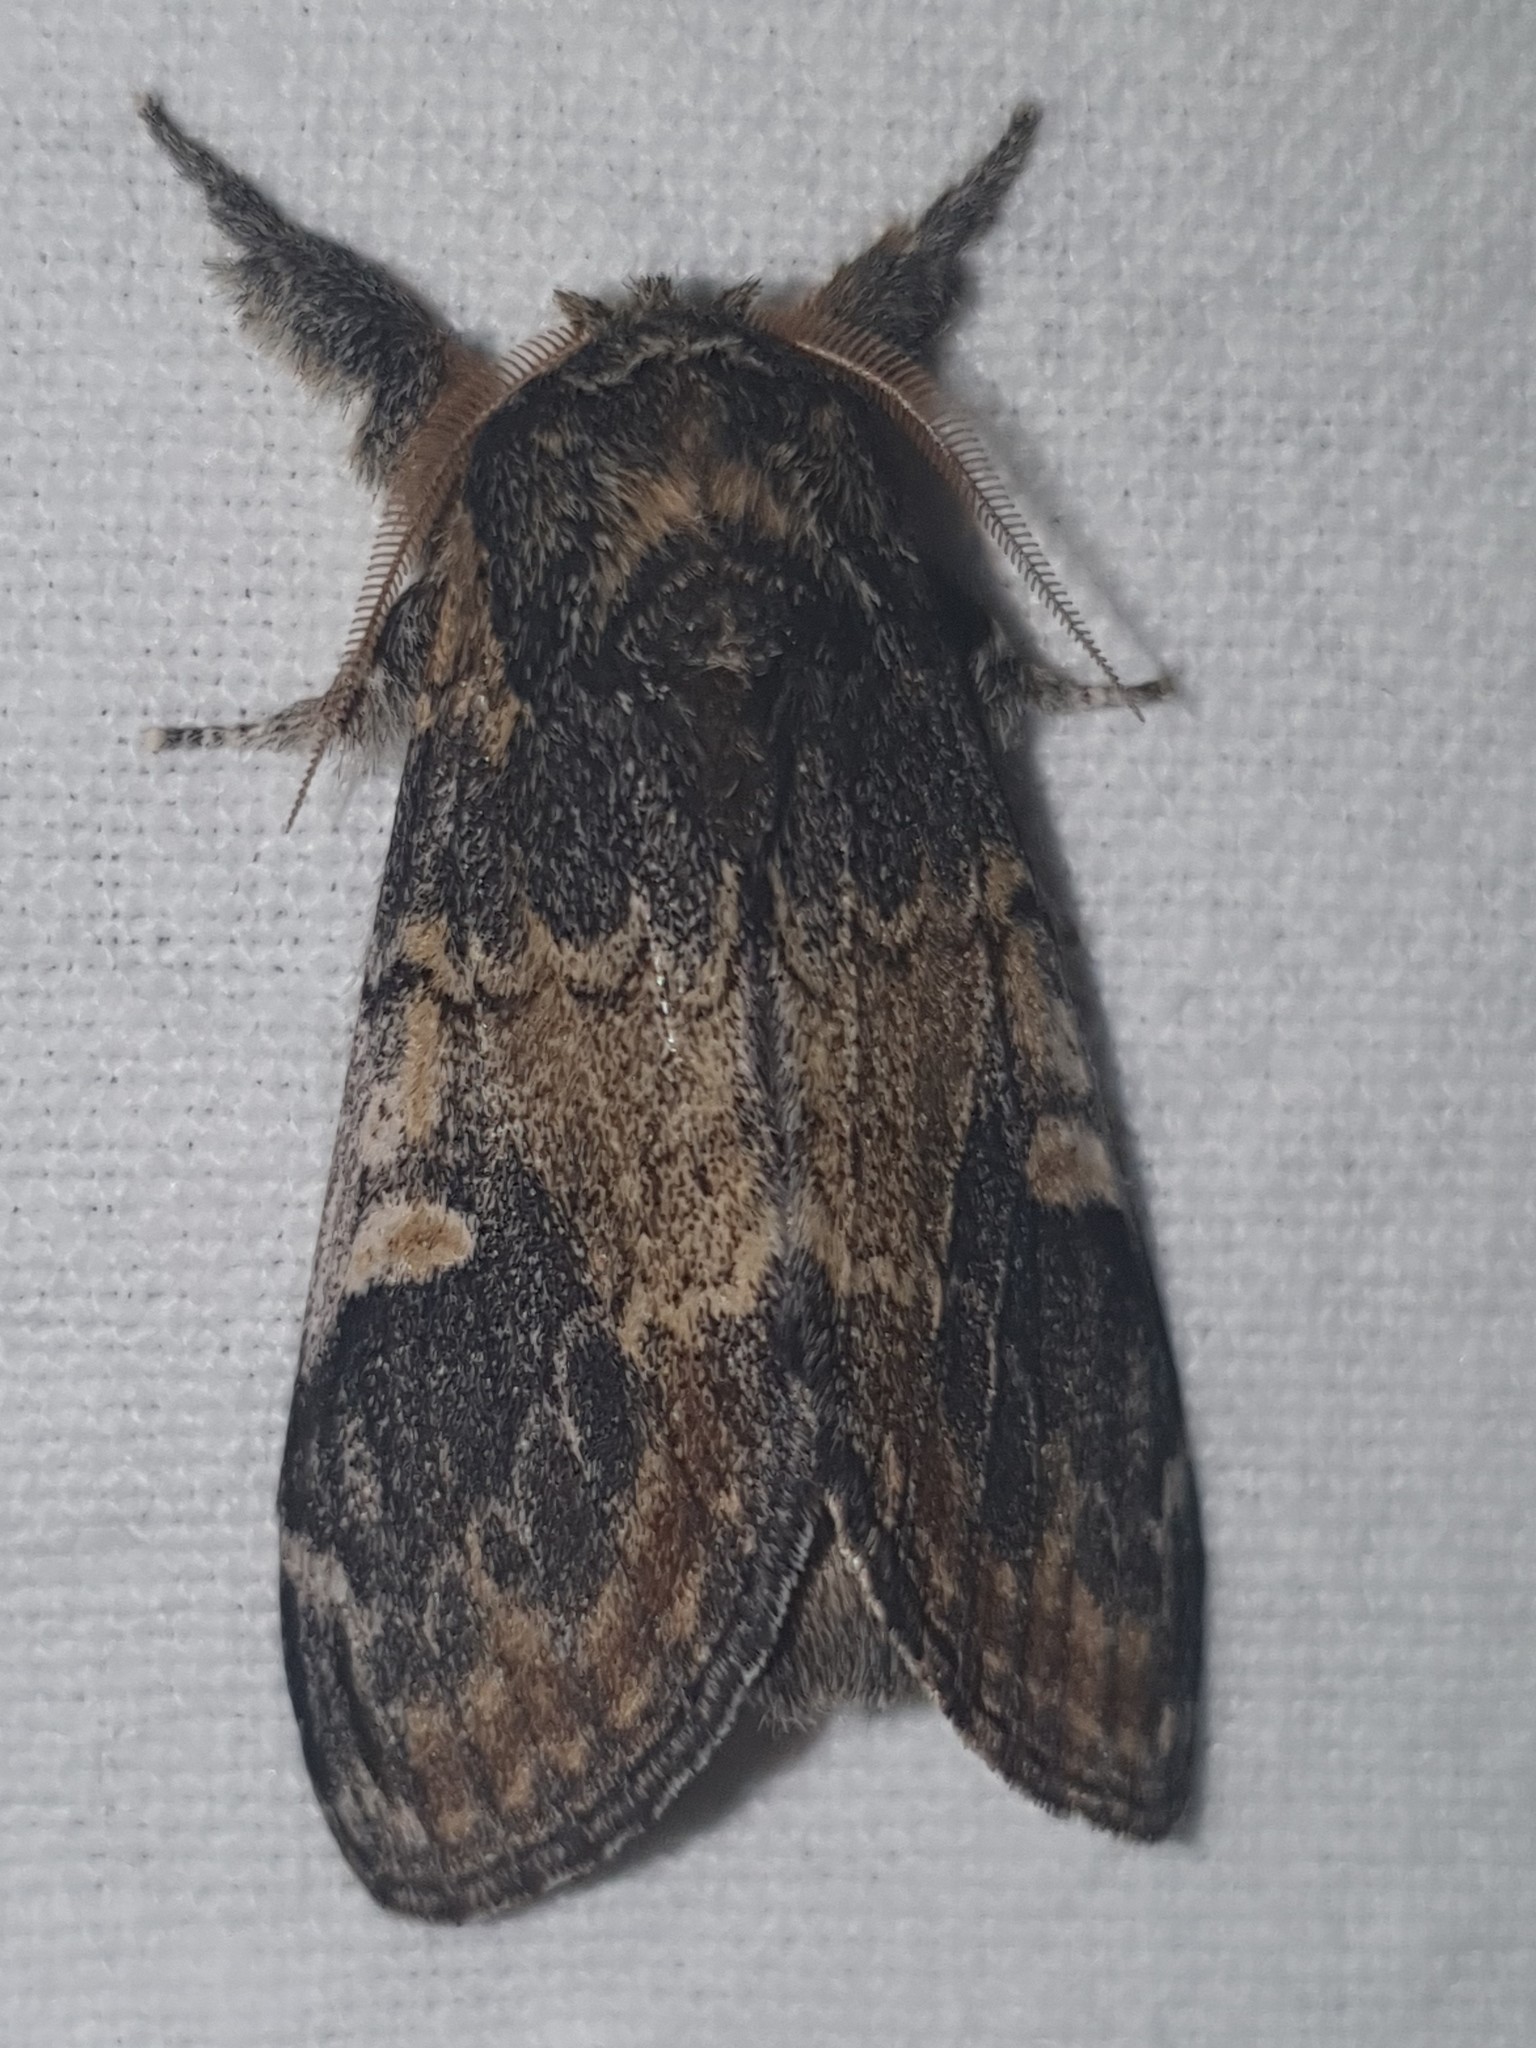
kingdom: Animalia
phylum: Arthropoda
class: Insecta
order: Lepidoptera
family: Notodontidae
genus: Notodonta
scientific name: Notodonta tritophus
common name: Three-humped prominent
